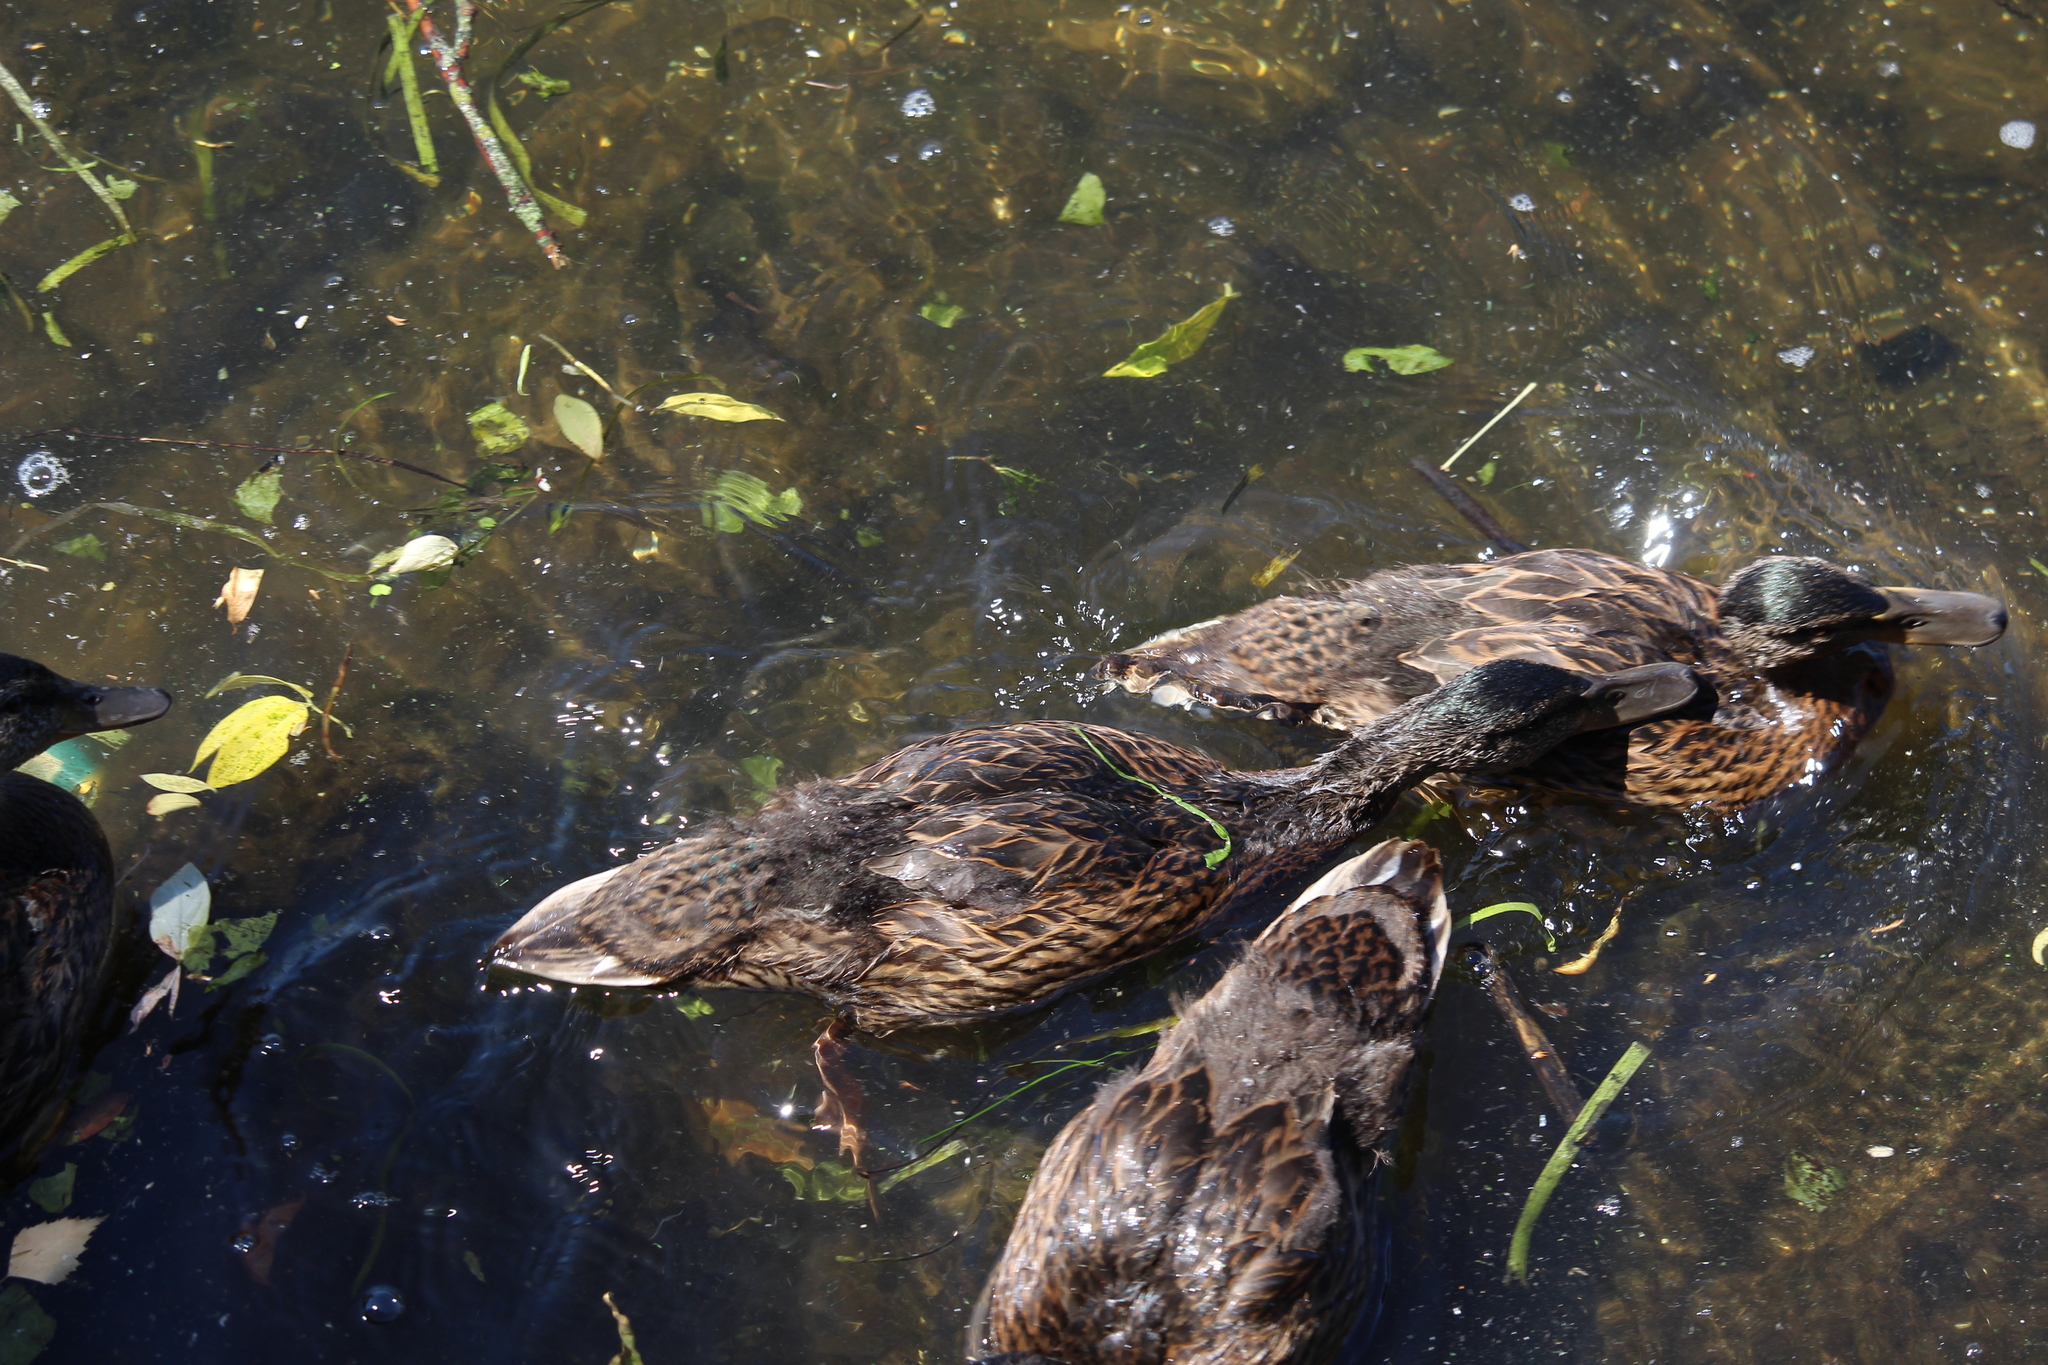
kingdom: Animalia
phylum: Chordata
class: Aves
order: Anseriformes
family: Anatidae
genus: Anas
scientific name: Anas platyrhynchos
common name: Mallard
